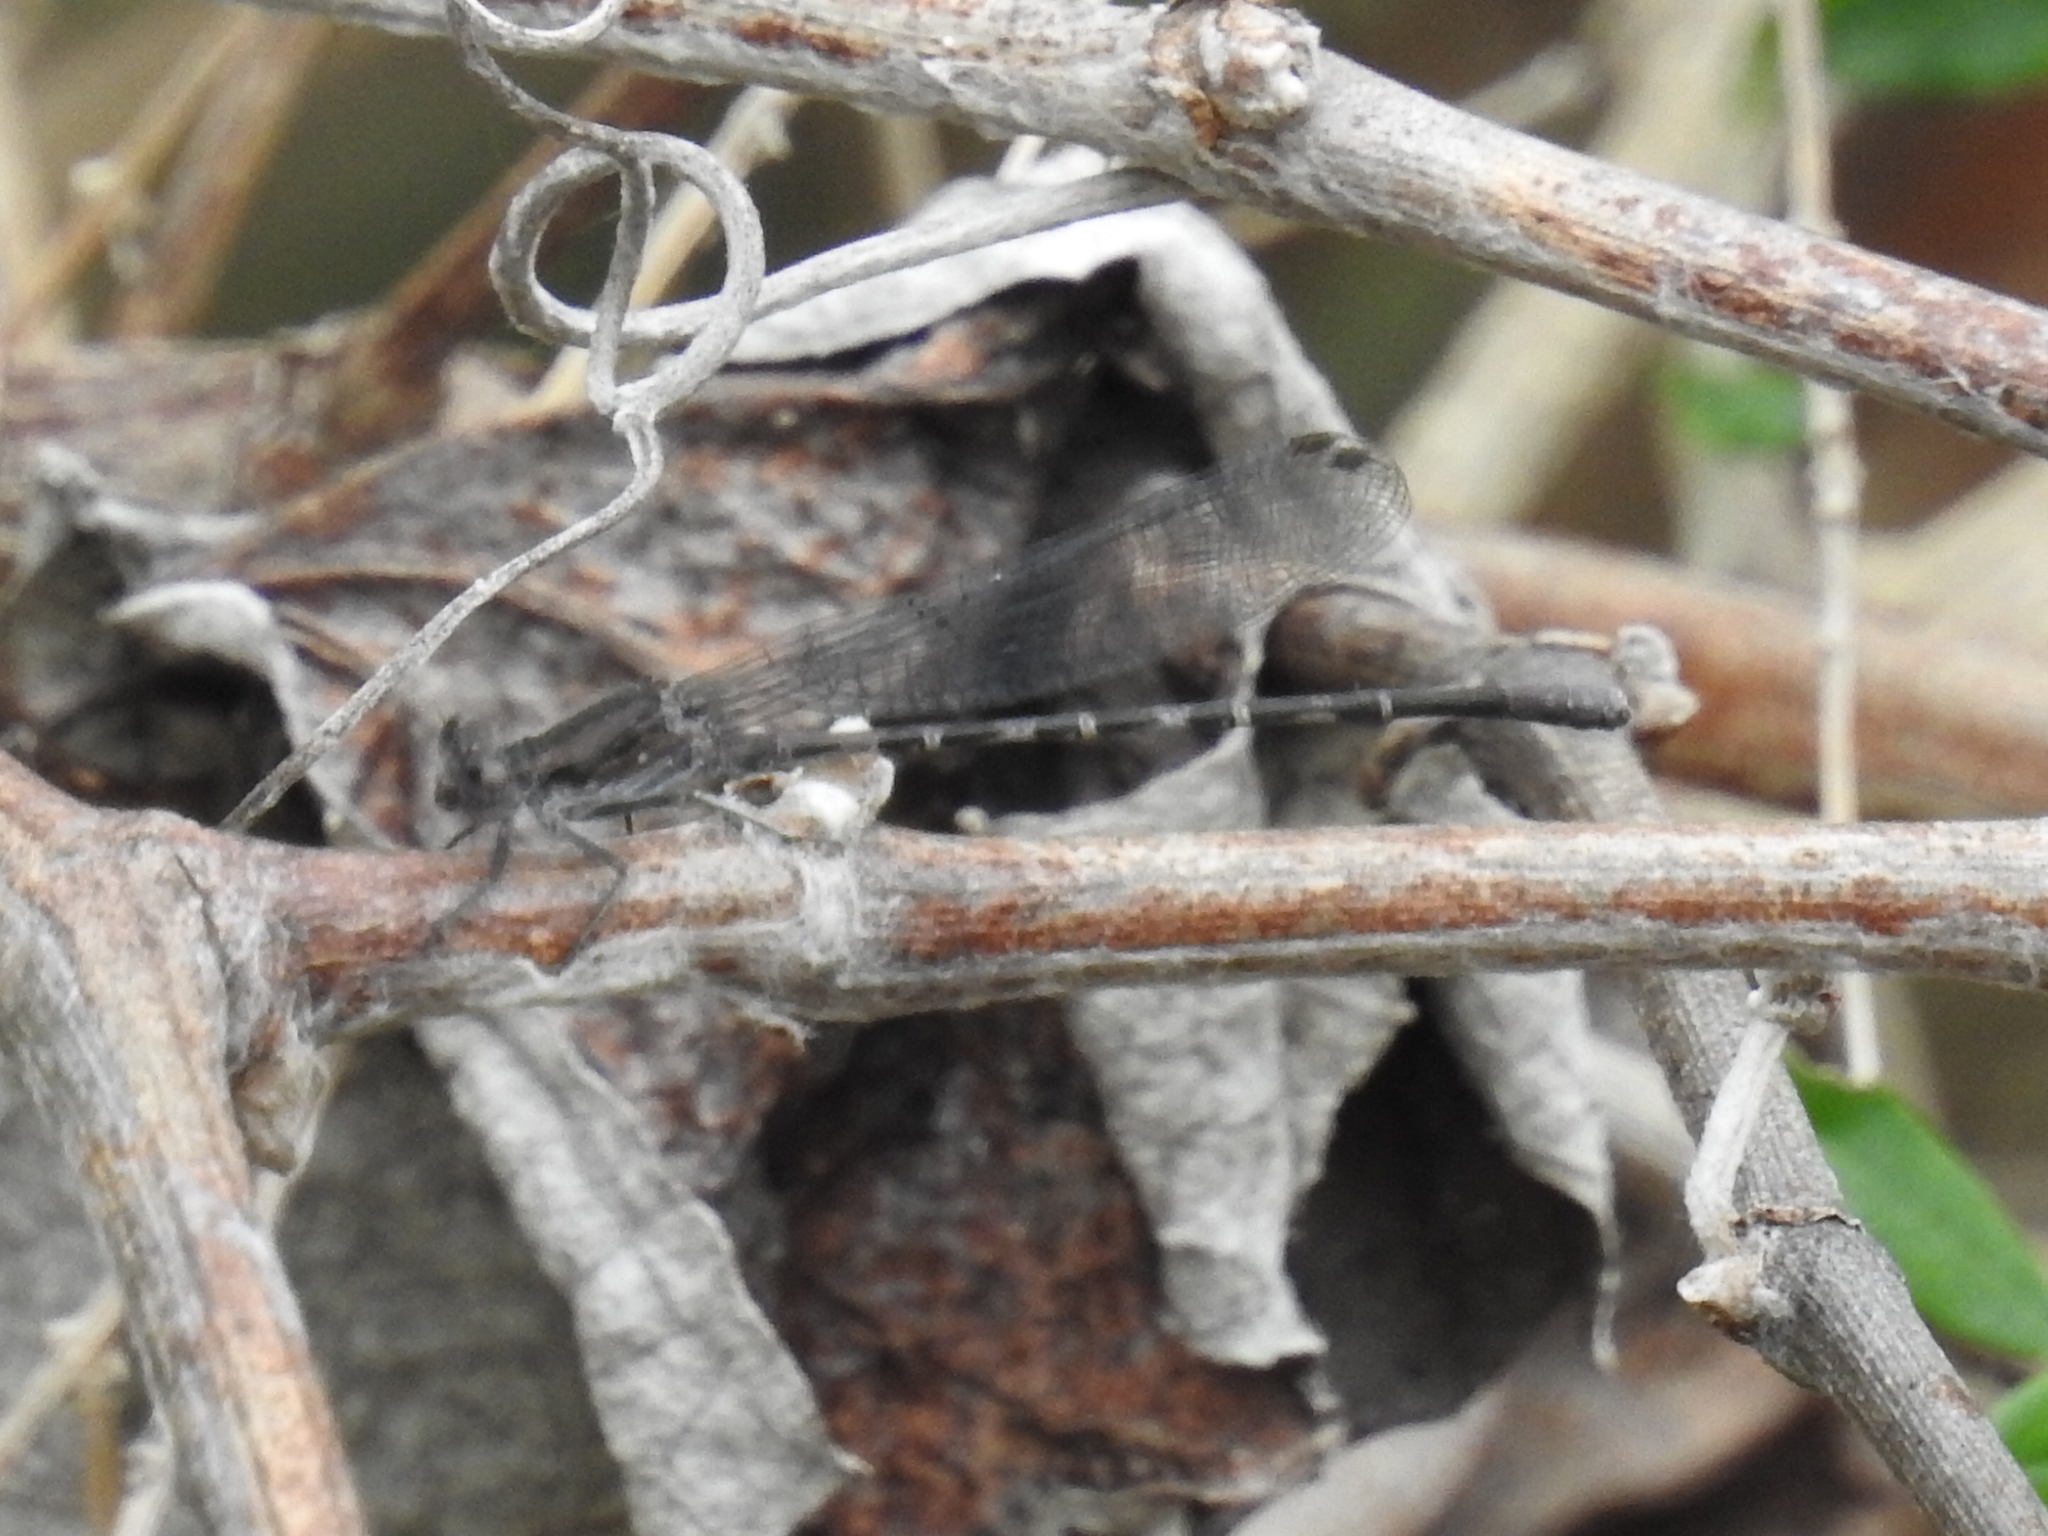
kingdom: Animalia
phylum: Arthropoda
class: Insecta
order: Odonata
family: Coenagrionidae
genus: Argia
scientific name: Argia immunda
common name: Kiowa dancer
